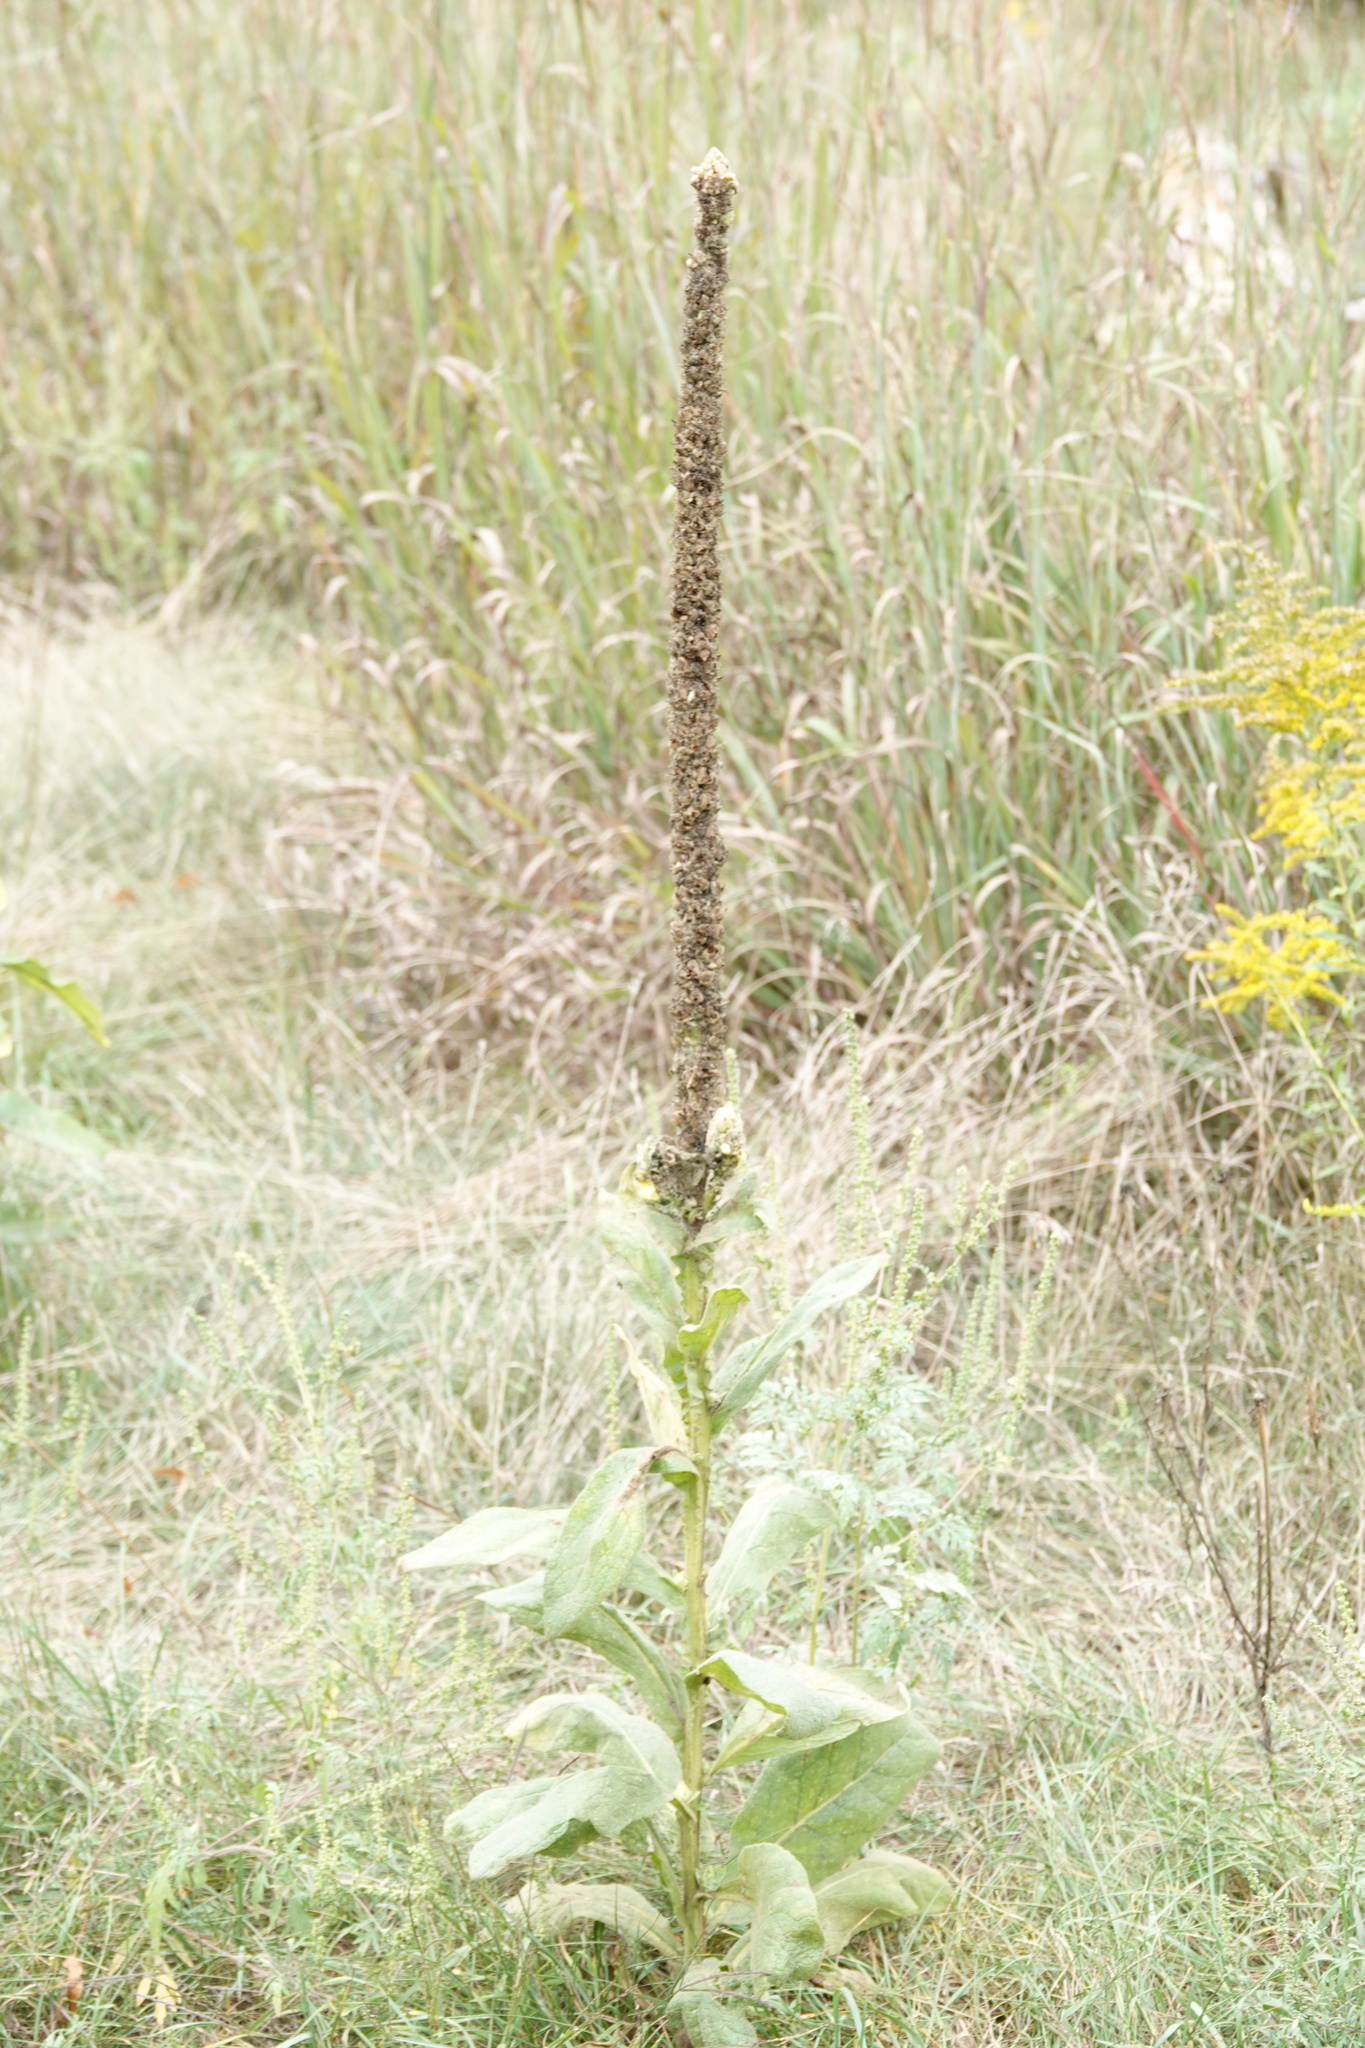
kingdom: Plantae
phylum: Tracheophyta
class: Magnoliopsida
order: Lamiales
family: Scrophulariaceae
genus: Verbascum
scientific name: Verbascum thapsus
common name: Common mullein
